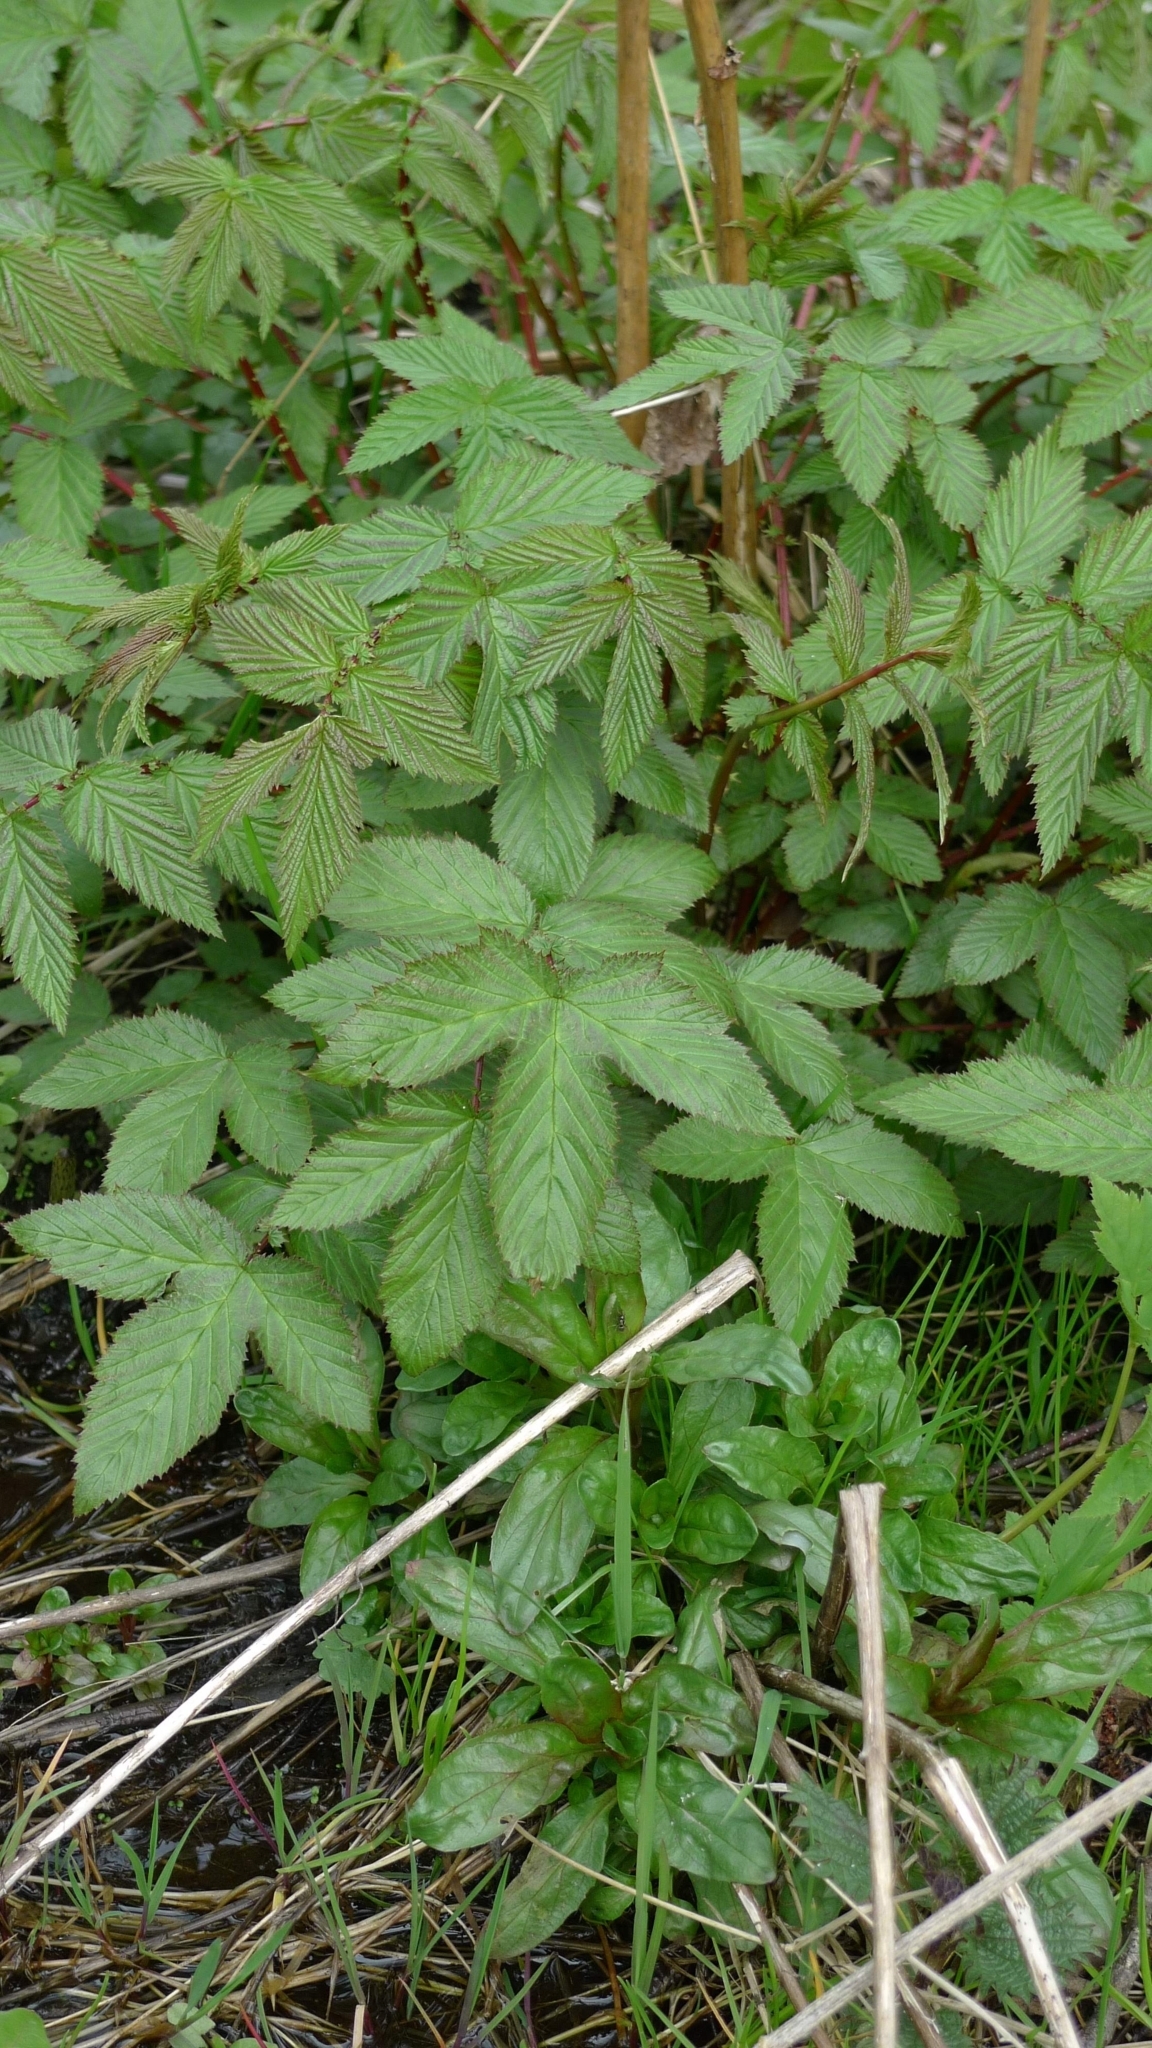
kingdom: Plantae
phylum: Tracheophyta
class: Magnoliopsida
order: Rosales
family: Rosaceae
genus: Filipendula
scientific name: Filipendula ulmaria
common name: Meadowsweet
